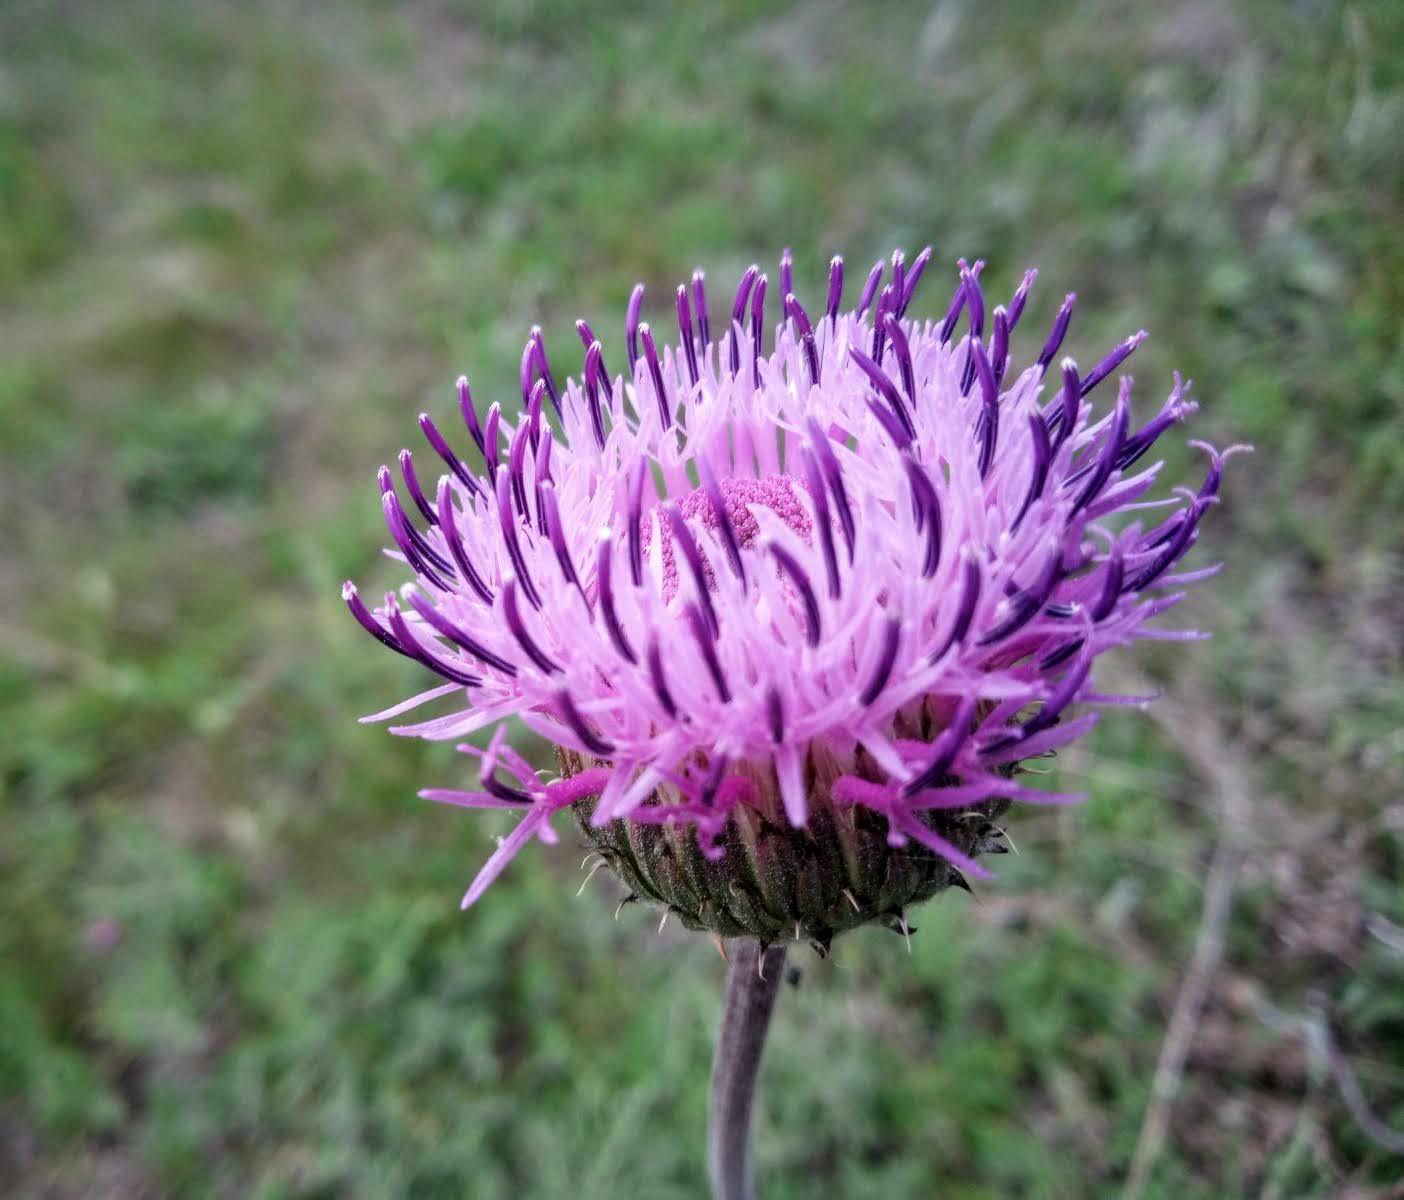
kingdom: Plantae
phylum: Tracheophyta
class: Magnoliopsida
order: Asterales
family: Asteraceae
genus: Jurinea
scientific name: Jurinea calcarea
